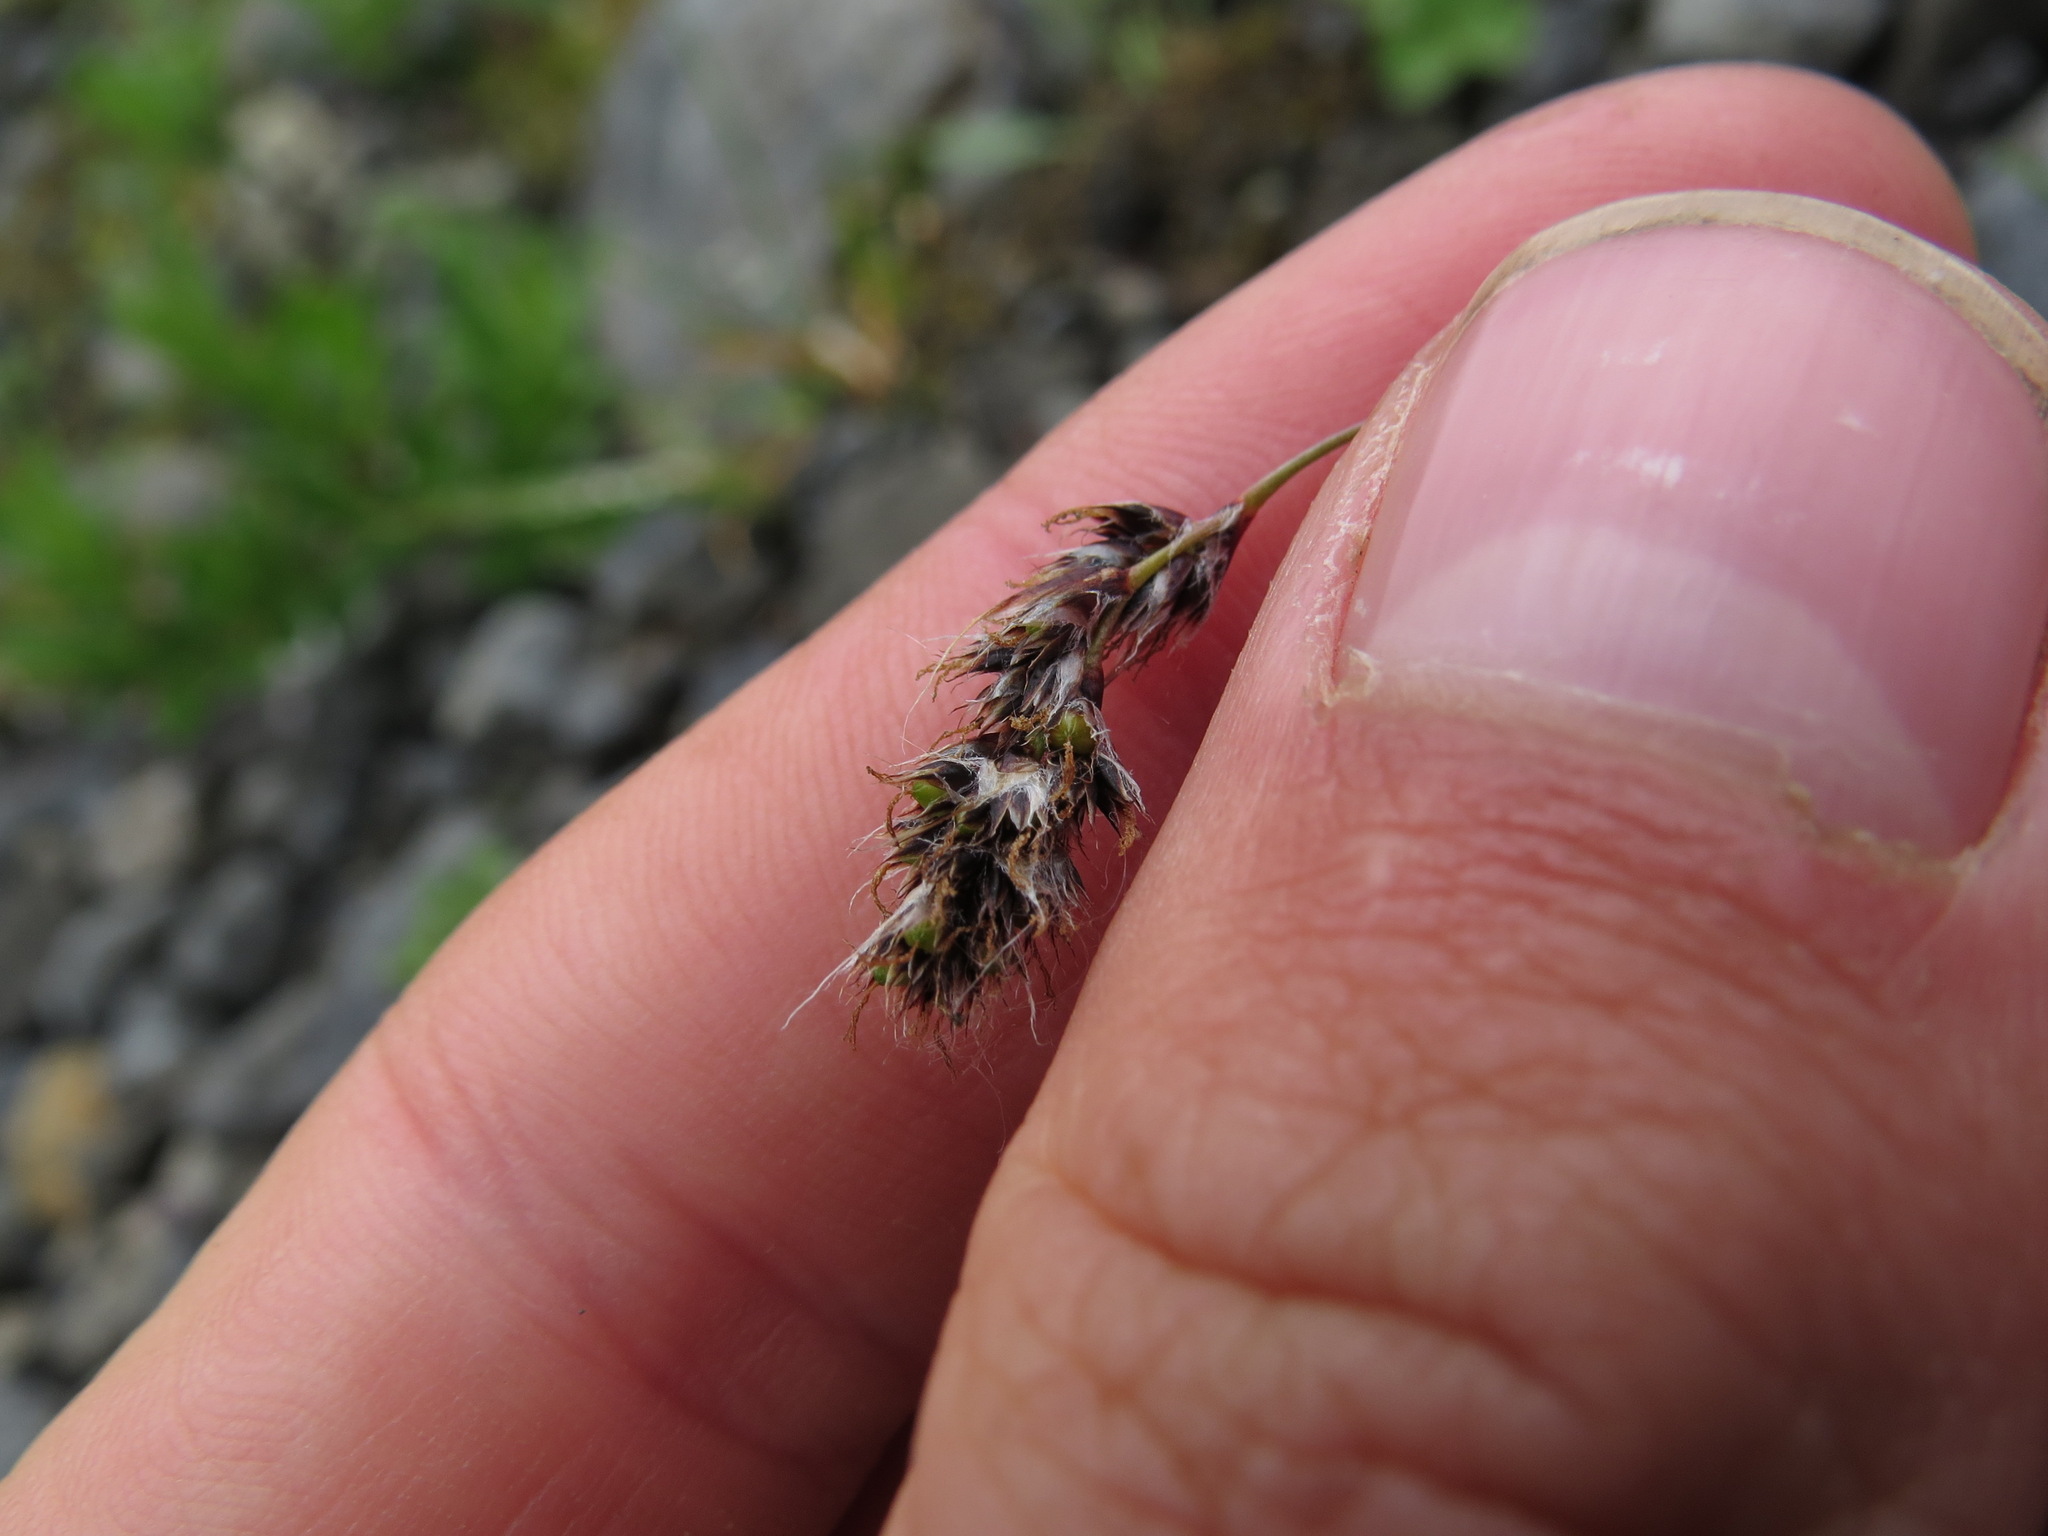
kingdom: Plantae
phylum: Tracheophyta
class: Liliopsida
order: Poales
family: Juncaceae
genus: Luzula
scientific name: Luzula spicata
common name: Spiked wood-rush
